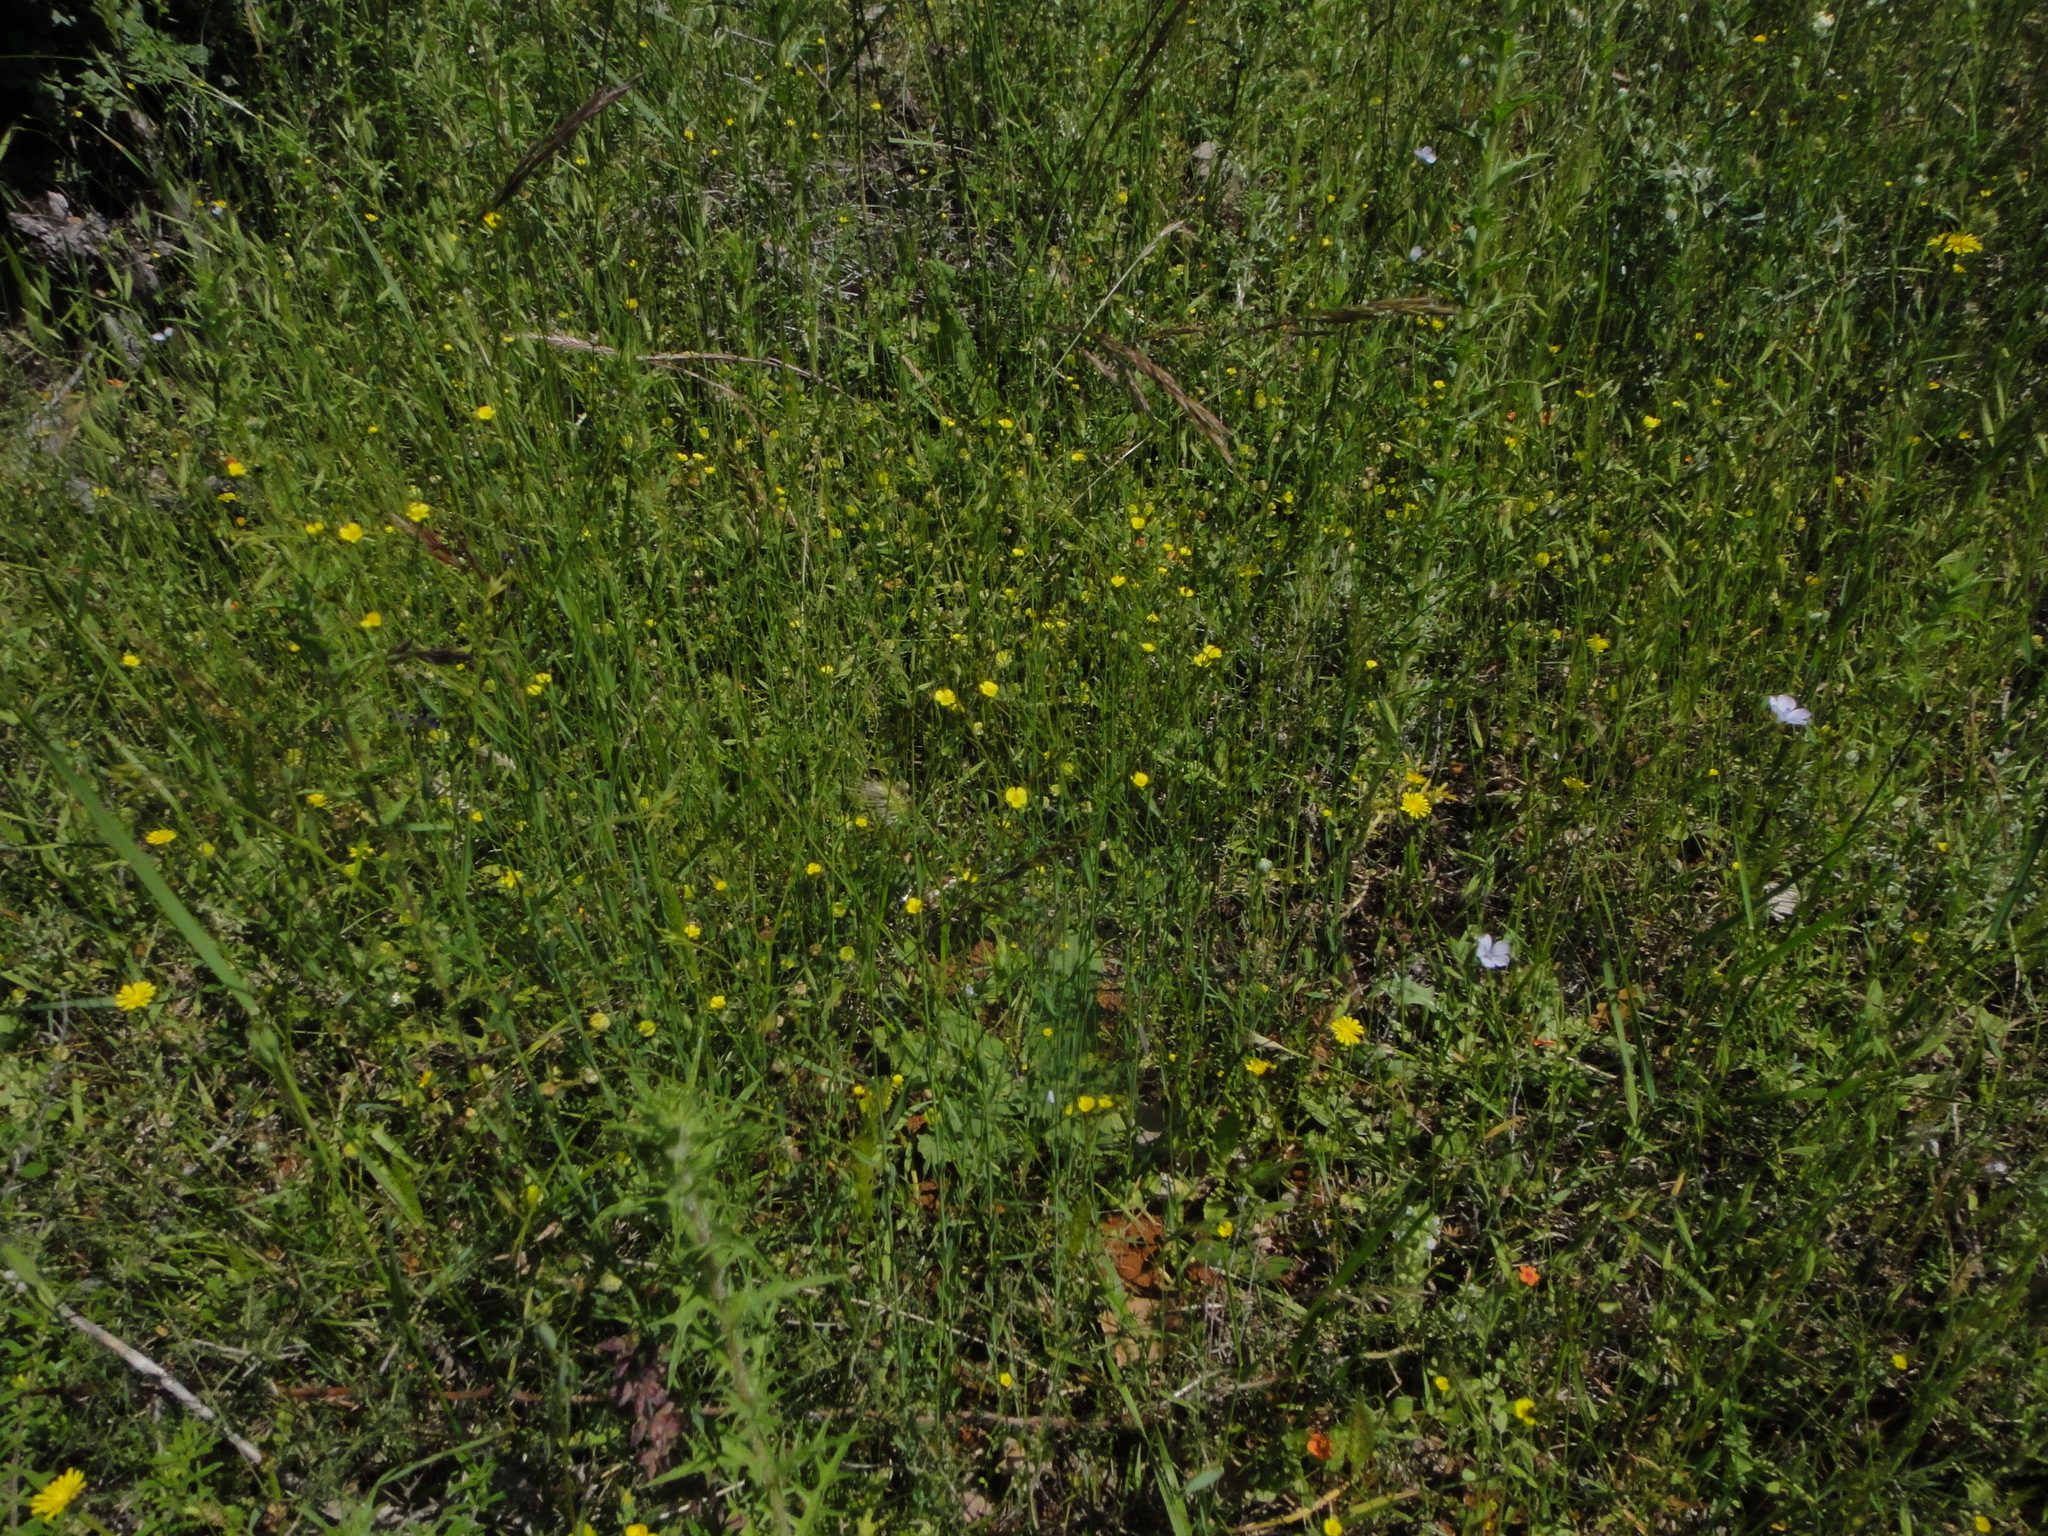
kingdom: Plantae
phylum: Tracheophyta
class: Magnoliopsida
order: Malpighiales
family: Linaceae
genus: Linum
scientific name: Linum trigynum
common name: French flax
